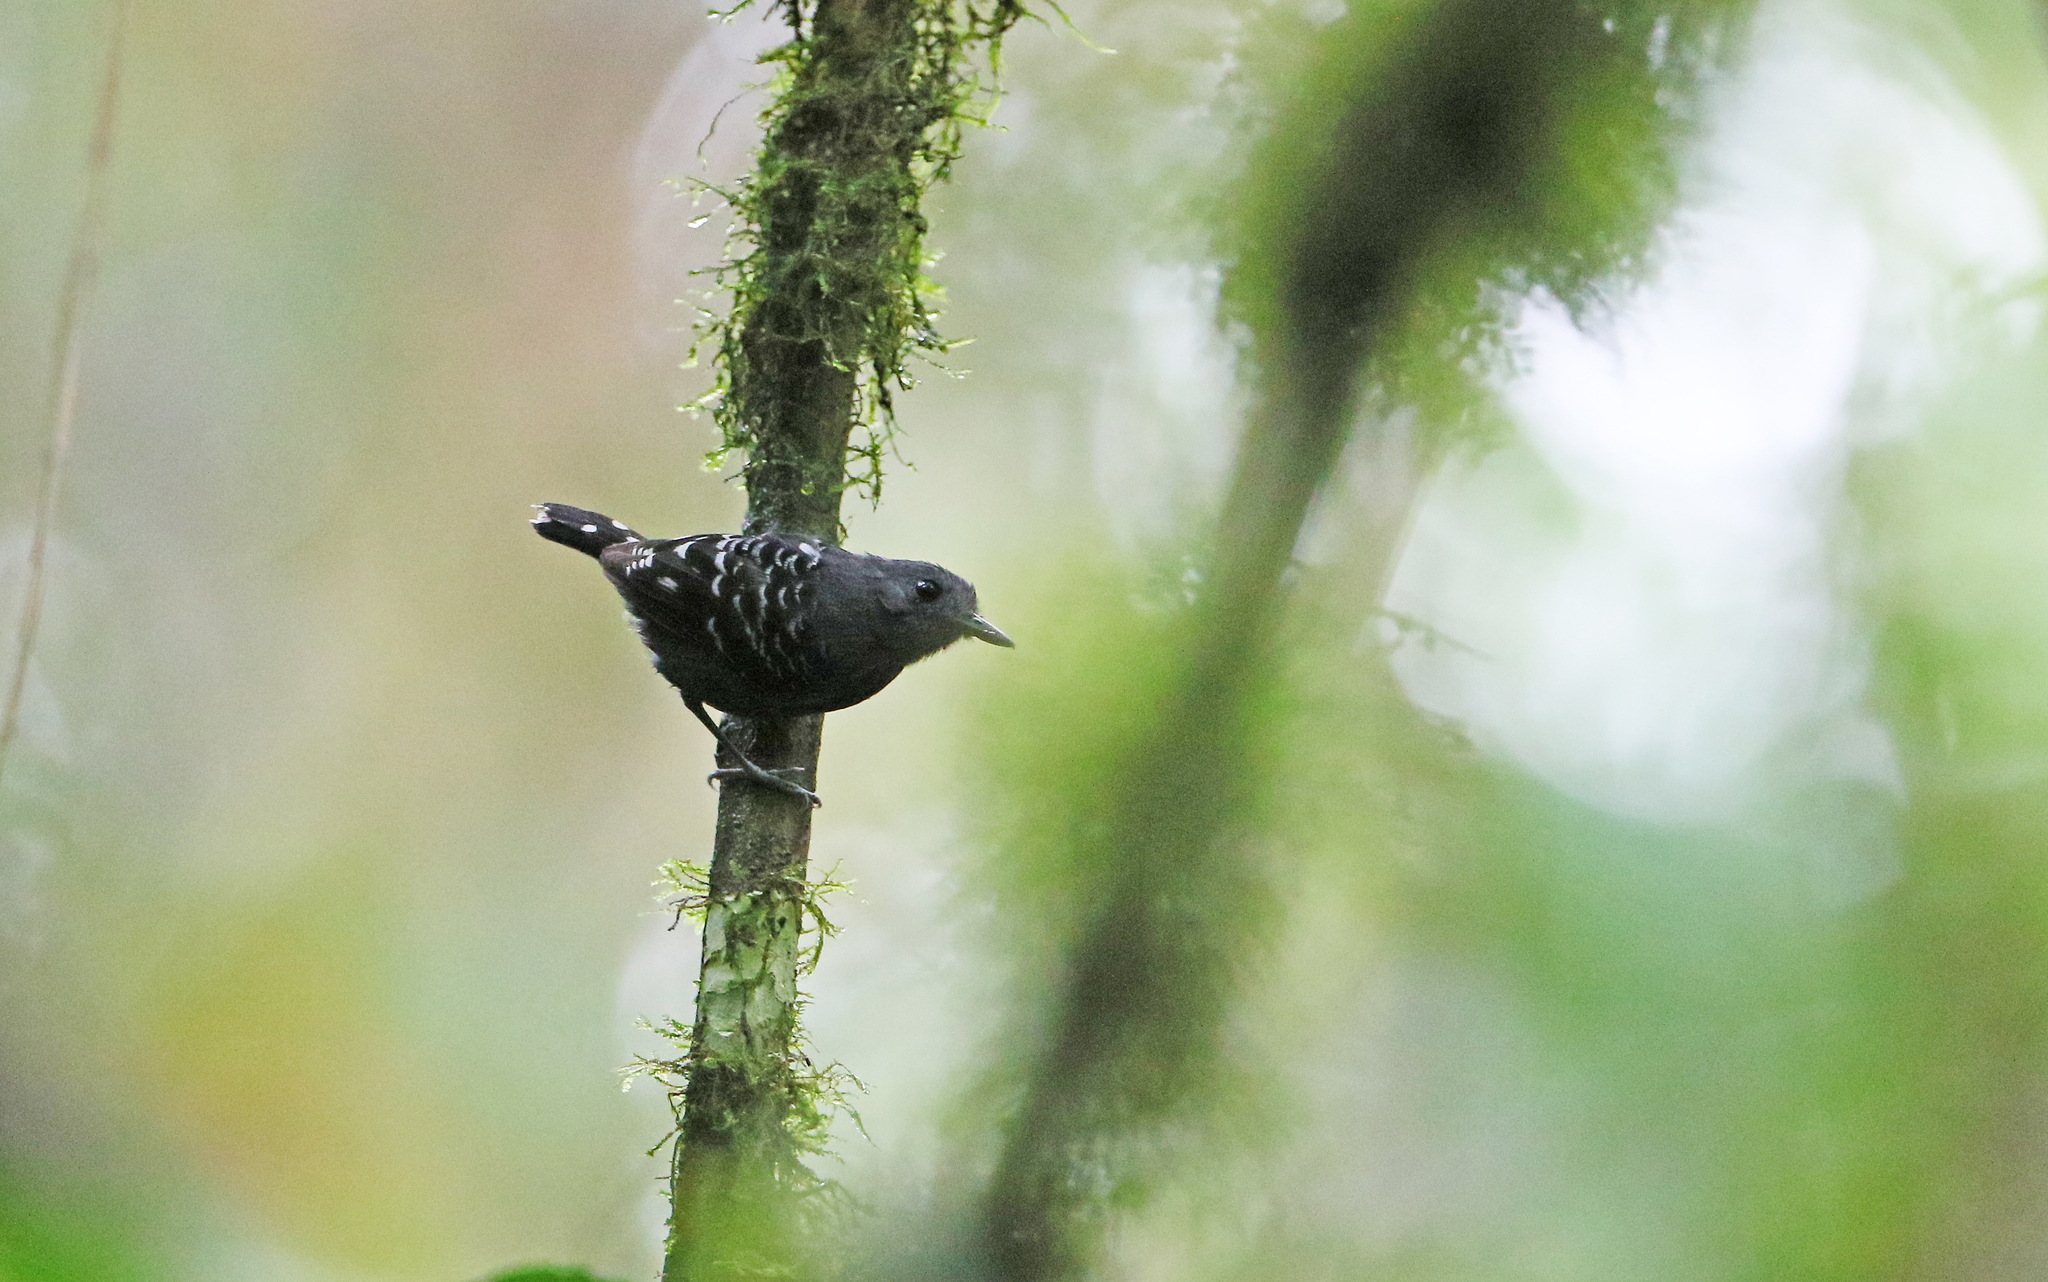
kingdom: Animalia
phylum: Chordata
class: Aves
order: Passeriformes
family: Thamnophilidae
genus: Willisornis
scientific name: Willisornis poecilinotus
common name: Common scale-backed antbird
